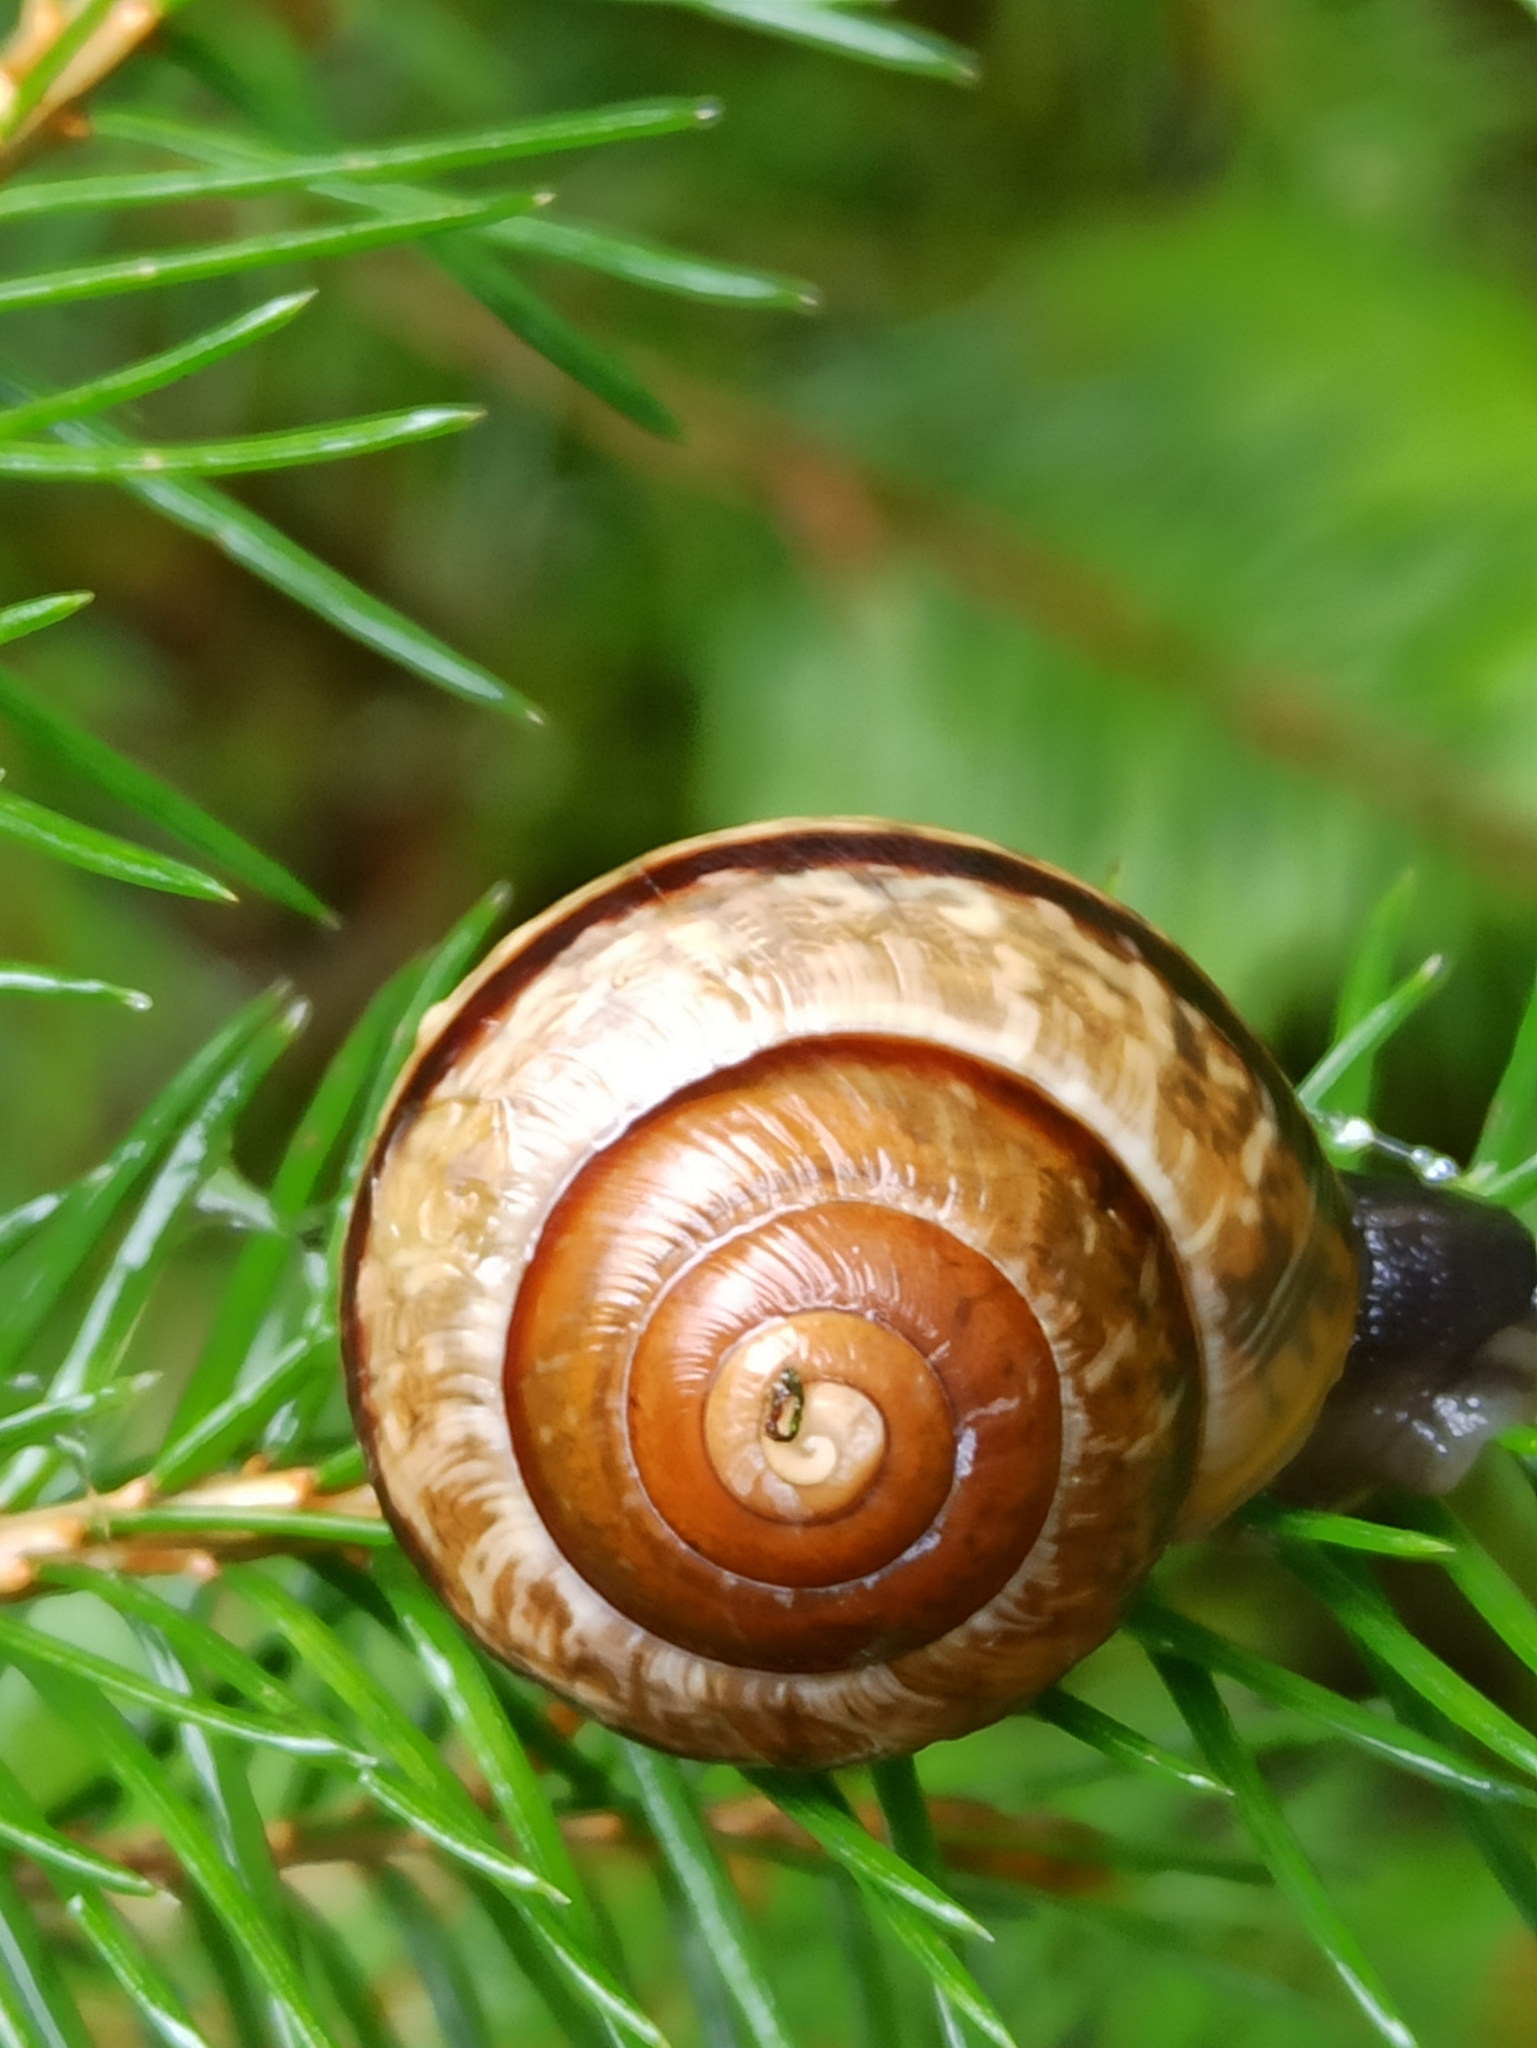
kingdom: Animalia
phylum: Mollusca
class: Gastropoda
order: Stylommatophora
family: Helicidae
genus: Arianta
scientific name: Arianta arbustorum
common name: Copse snail
